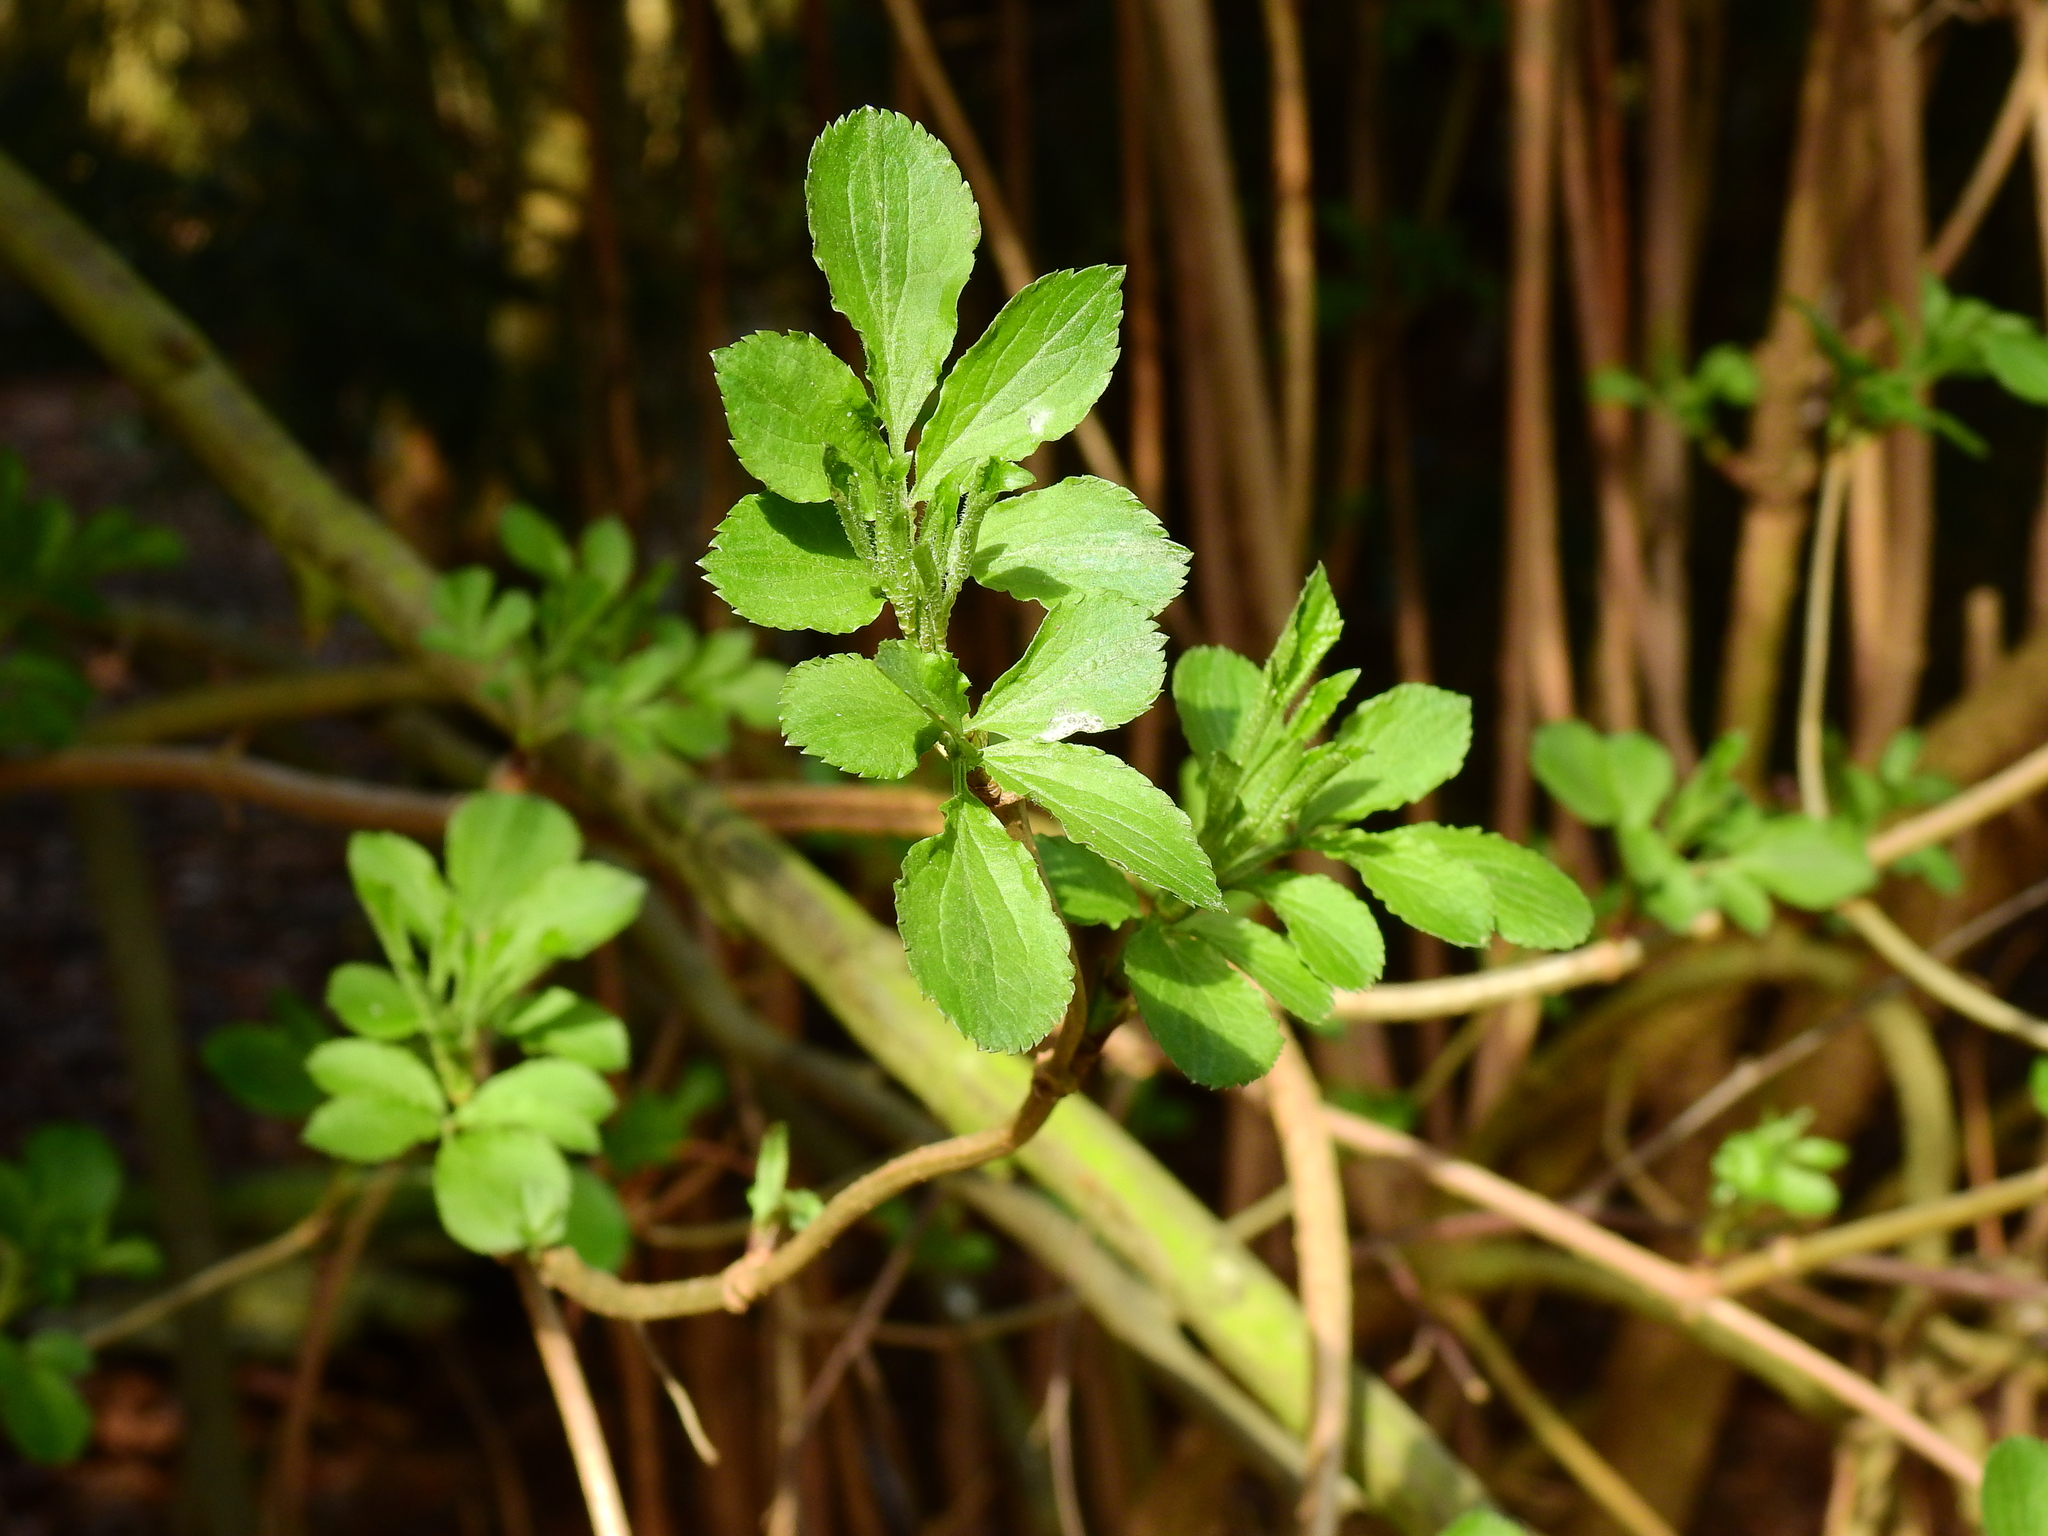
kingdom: Plantae
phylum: Tracheophyta
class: Magnoliopsida
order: Dipsacales
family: Viburnaceae
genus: Sambucus
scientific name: Sambucus nigra
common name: Elder
